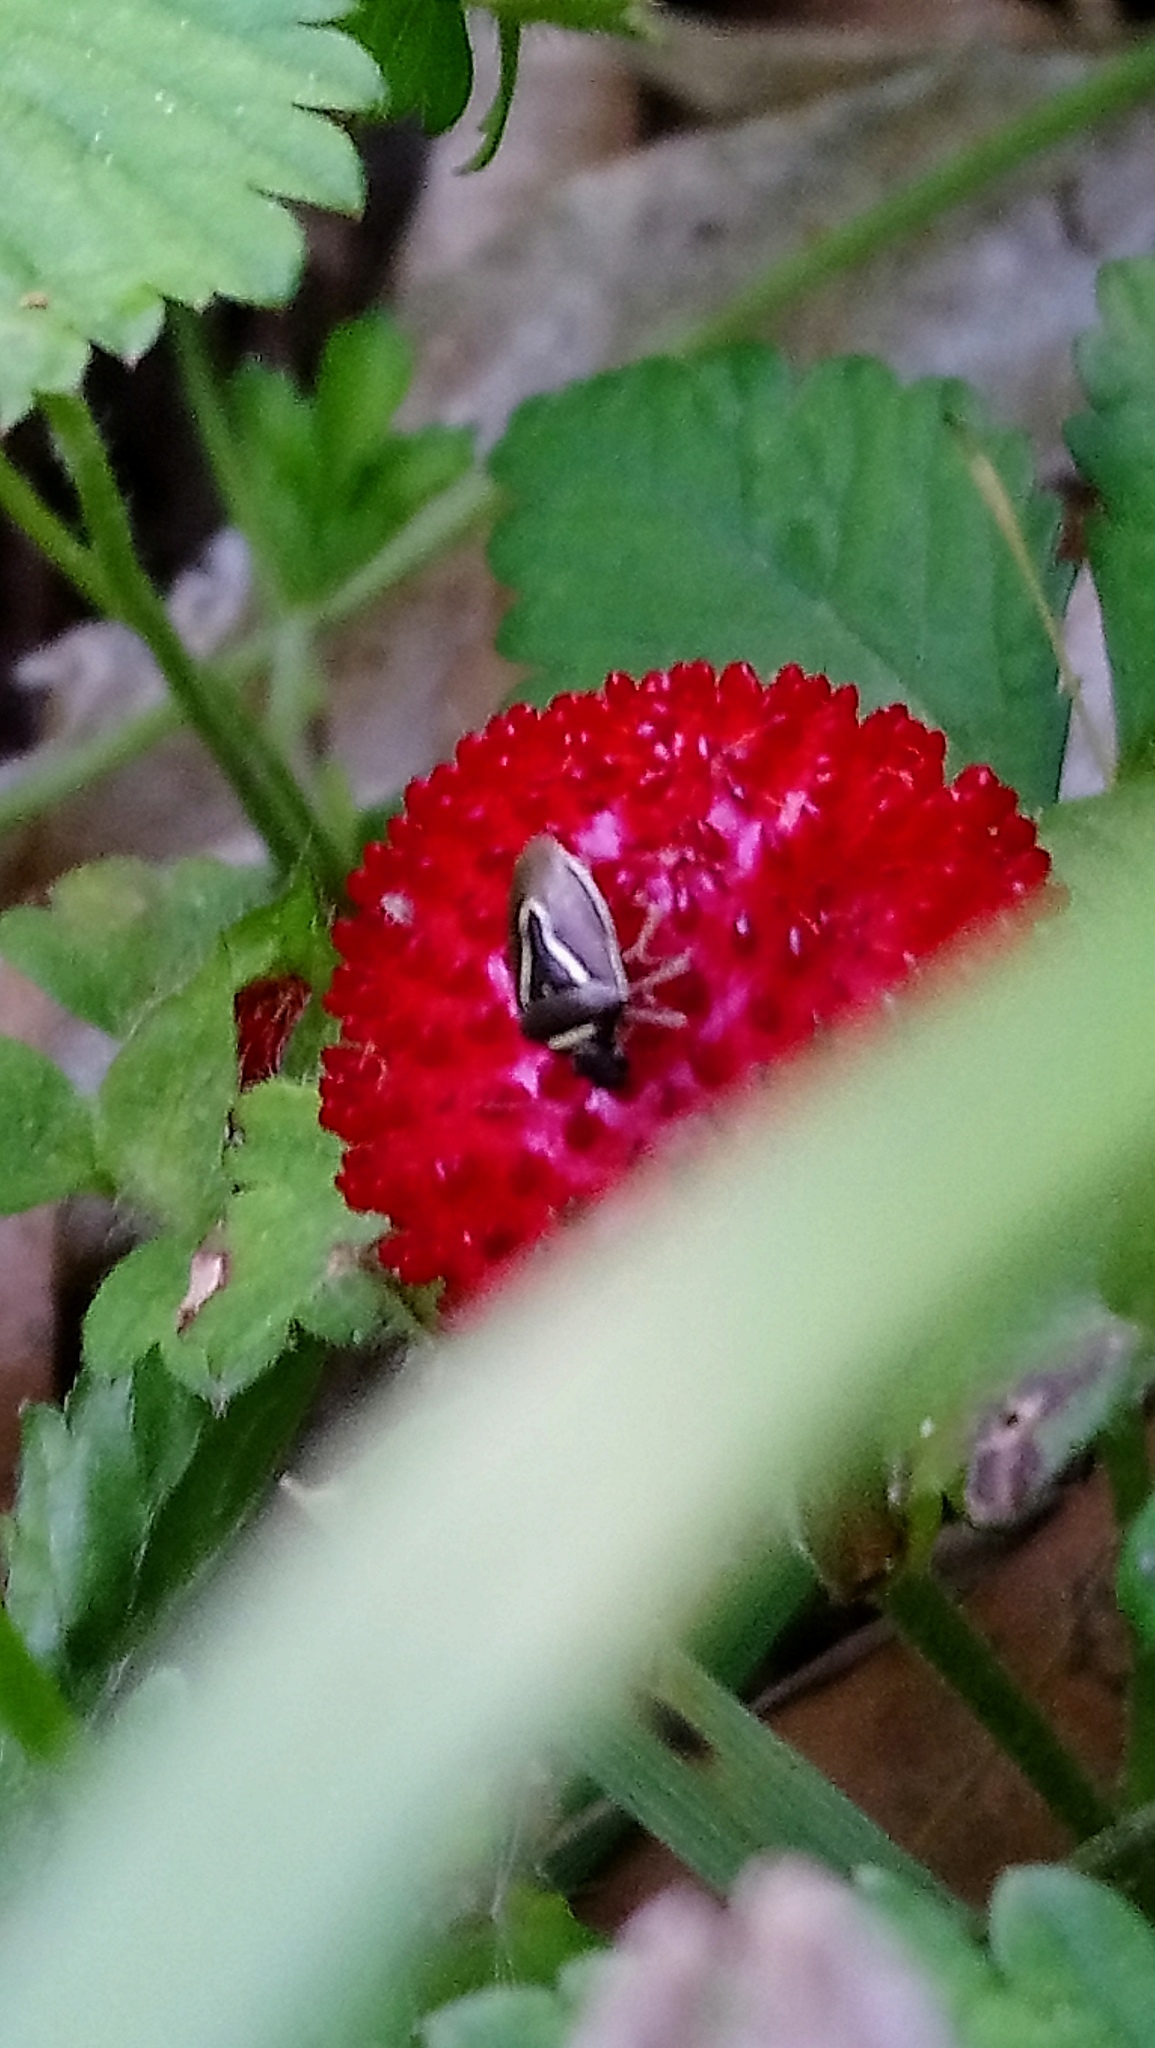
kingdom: Animalia
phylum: Arthropoda
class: Insecta
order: Hemiptera
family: Pentatomidae
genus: Mormidea
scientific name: Mormidea lugens
